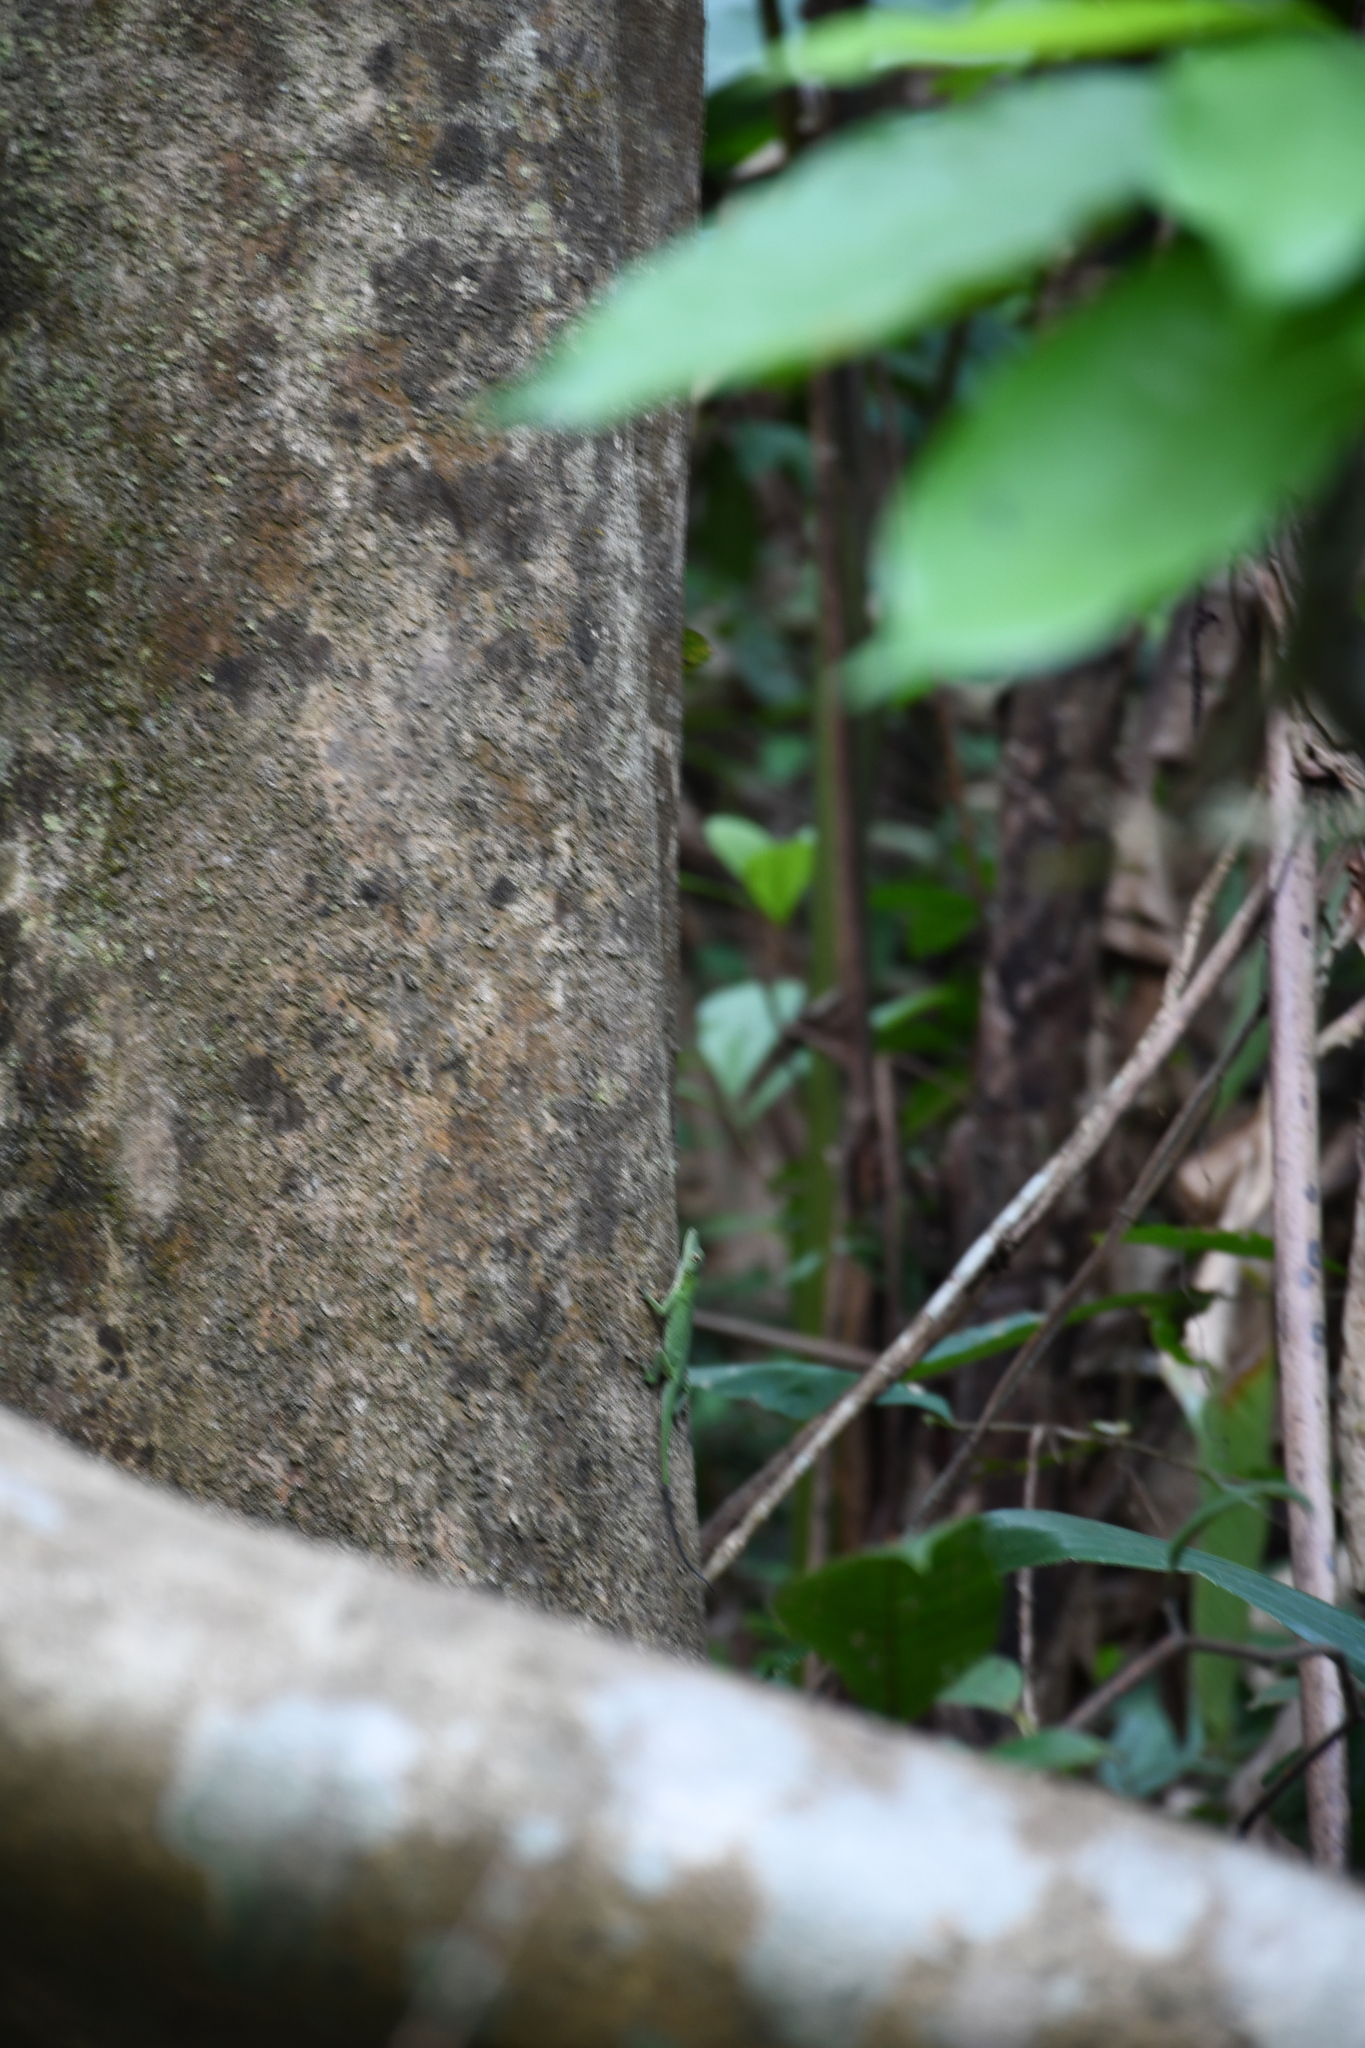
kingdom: Animalia
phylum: Chordata
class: Squamata
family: Dactyloidae
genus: Anolis
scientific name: Anolis punctatus
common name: Amazon green anole
